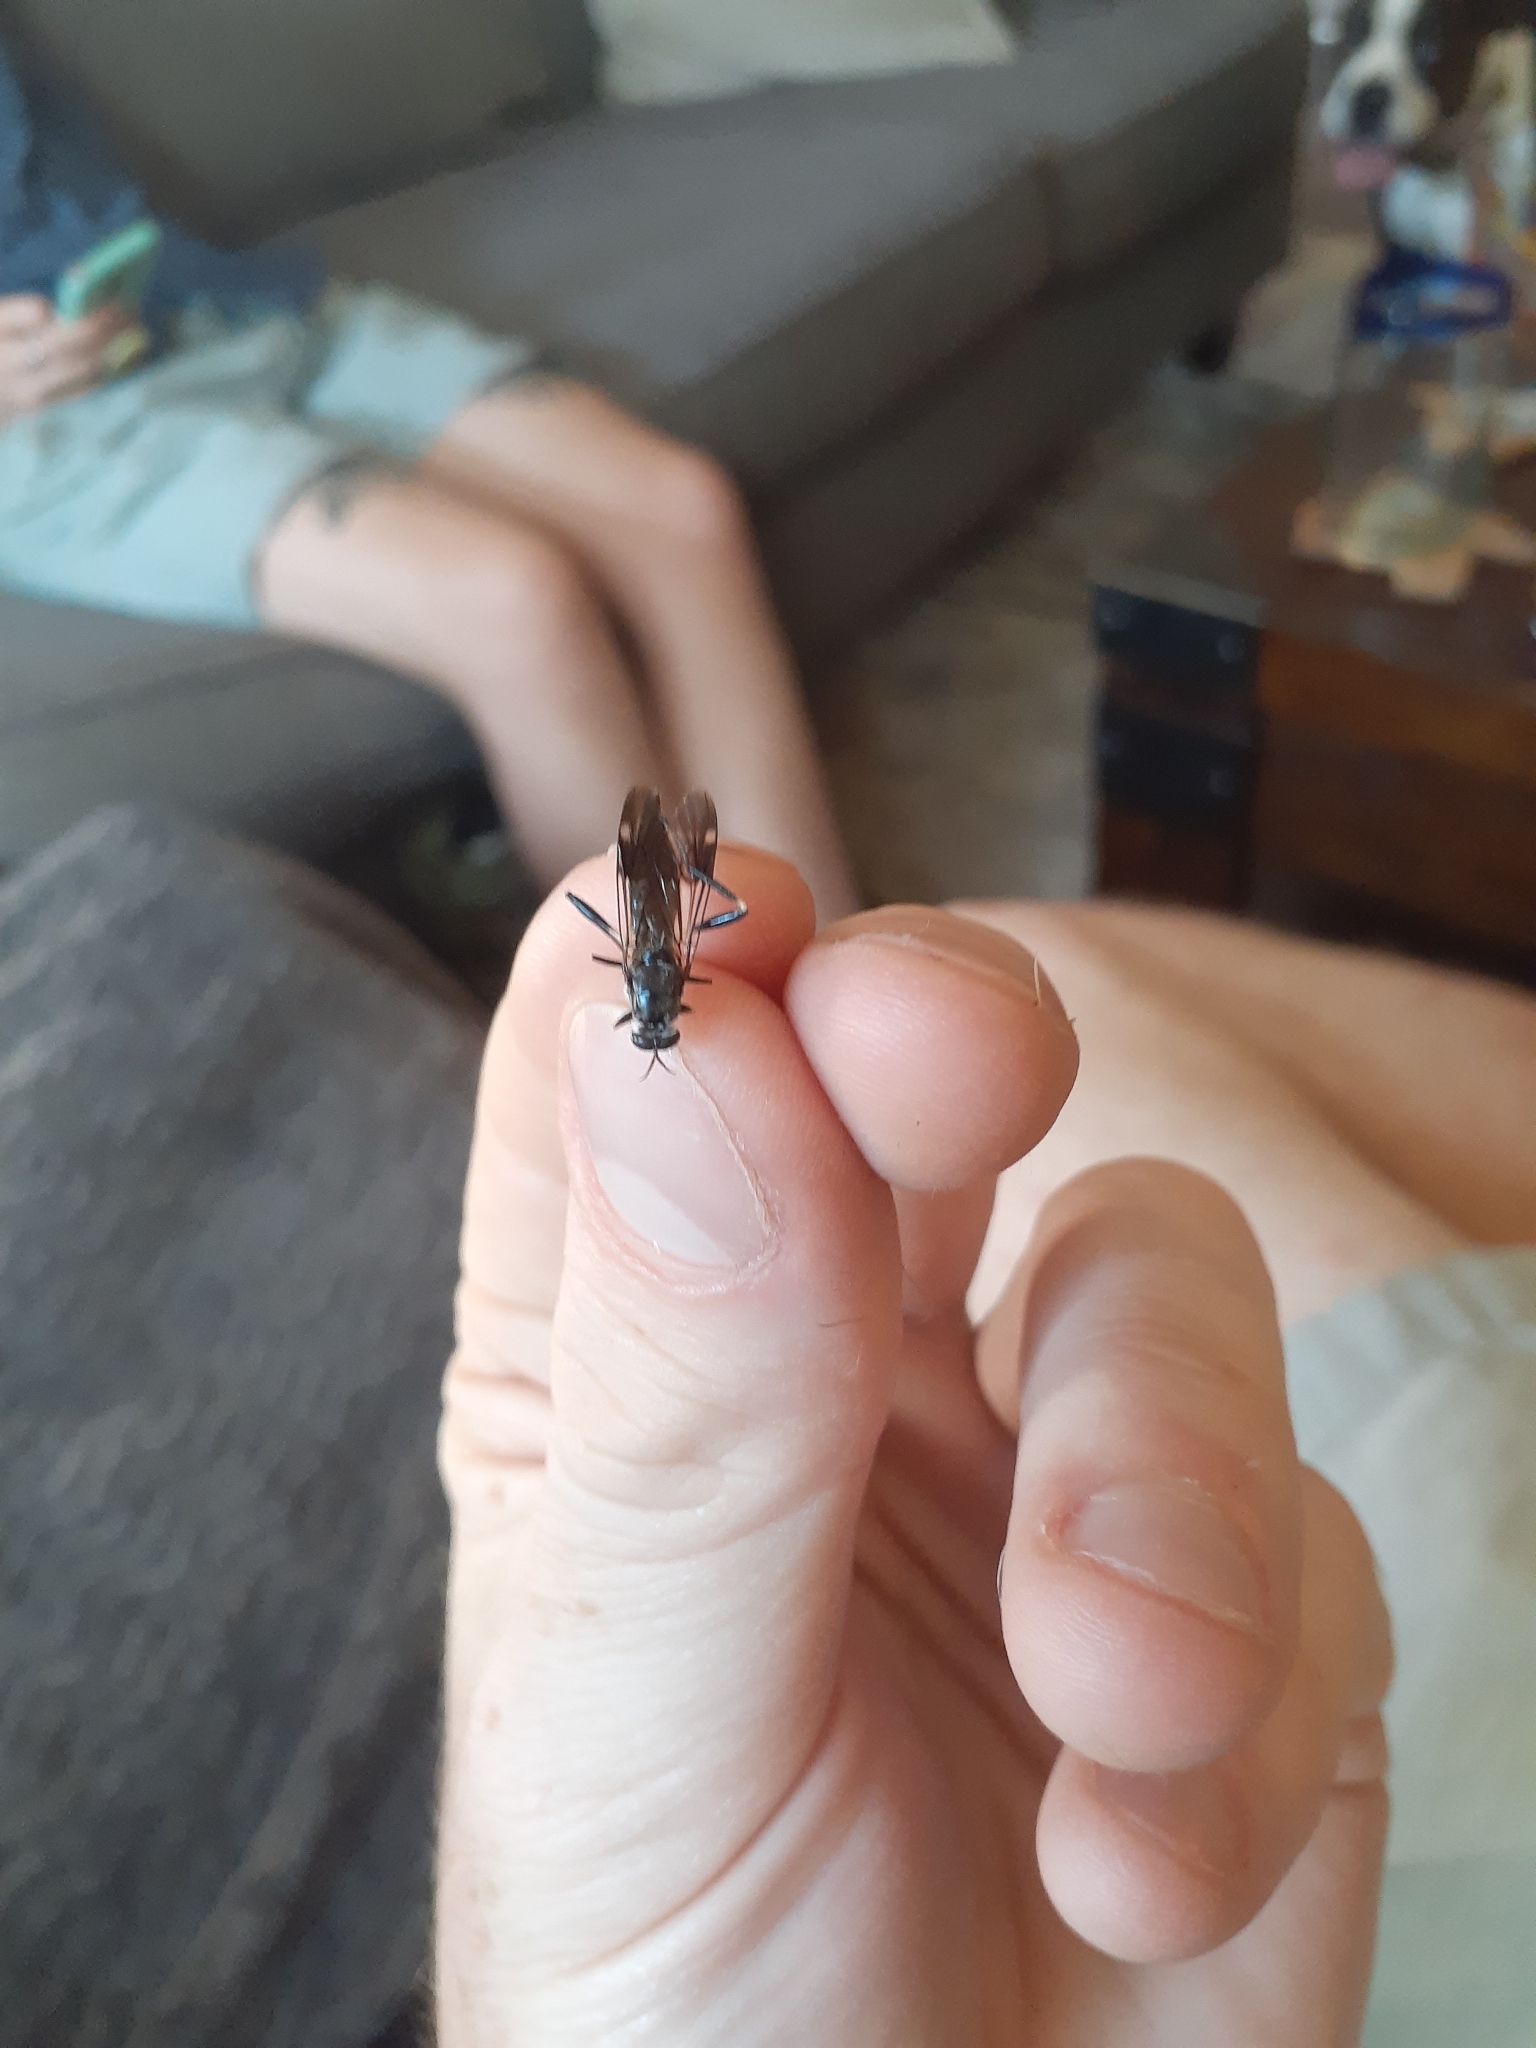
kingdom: Animalia
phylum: Arthropoda
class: Insecta
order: Diptera
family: Stratiomyidae
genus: Exaireta
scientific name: Exaireta spinigera
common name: Blue soldier fly
